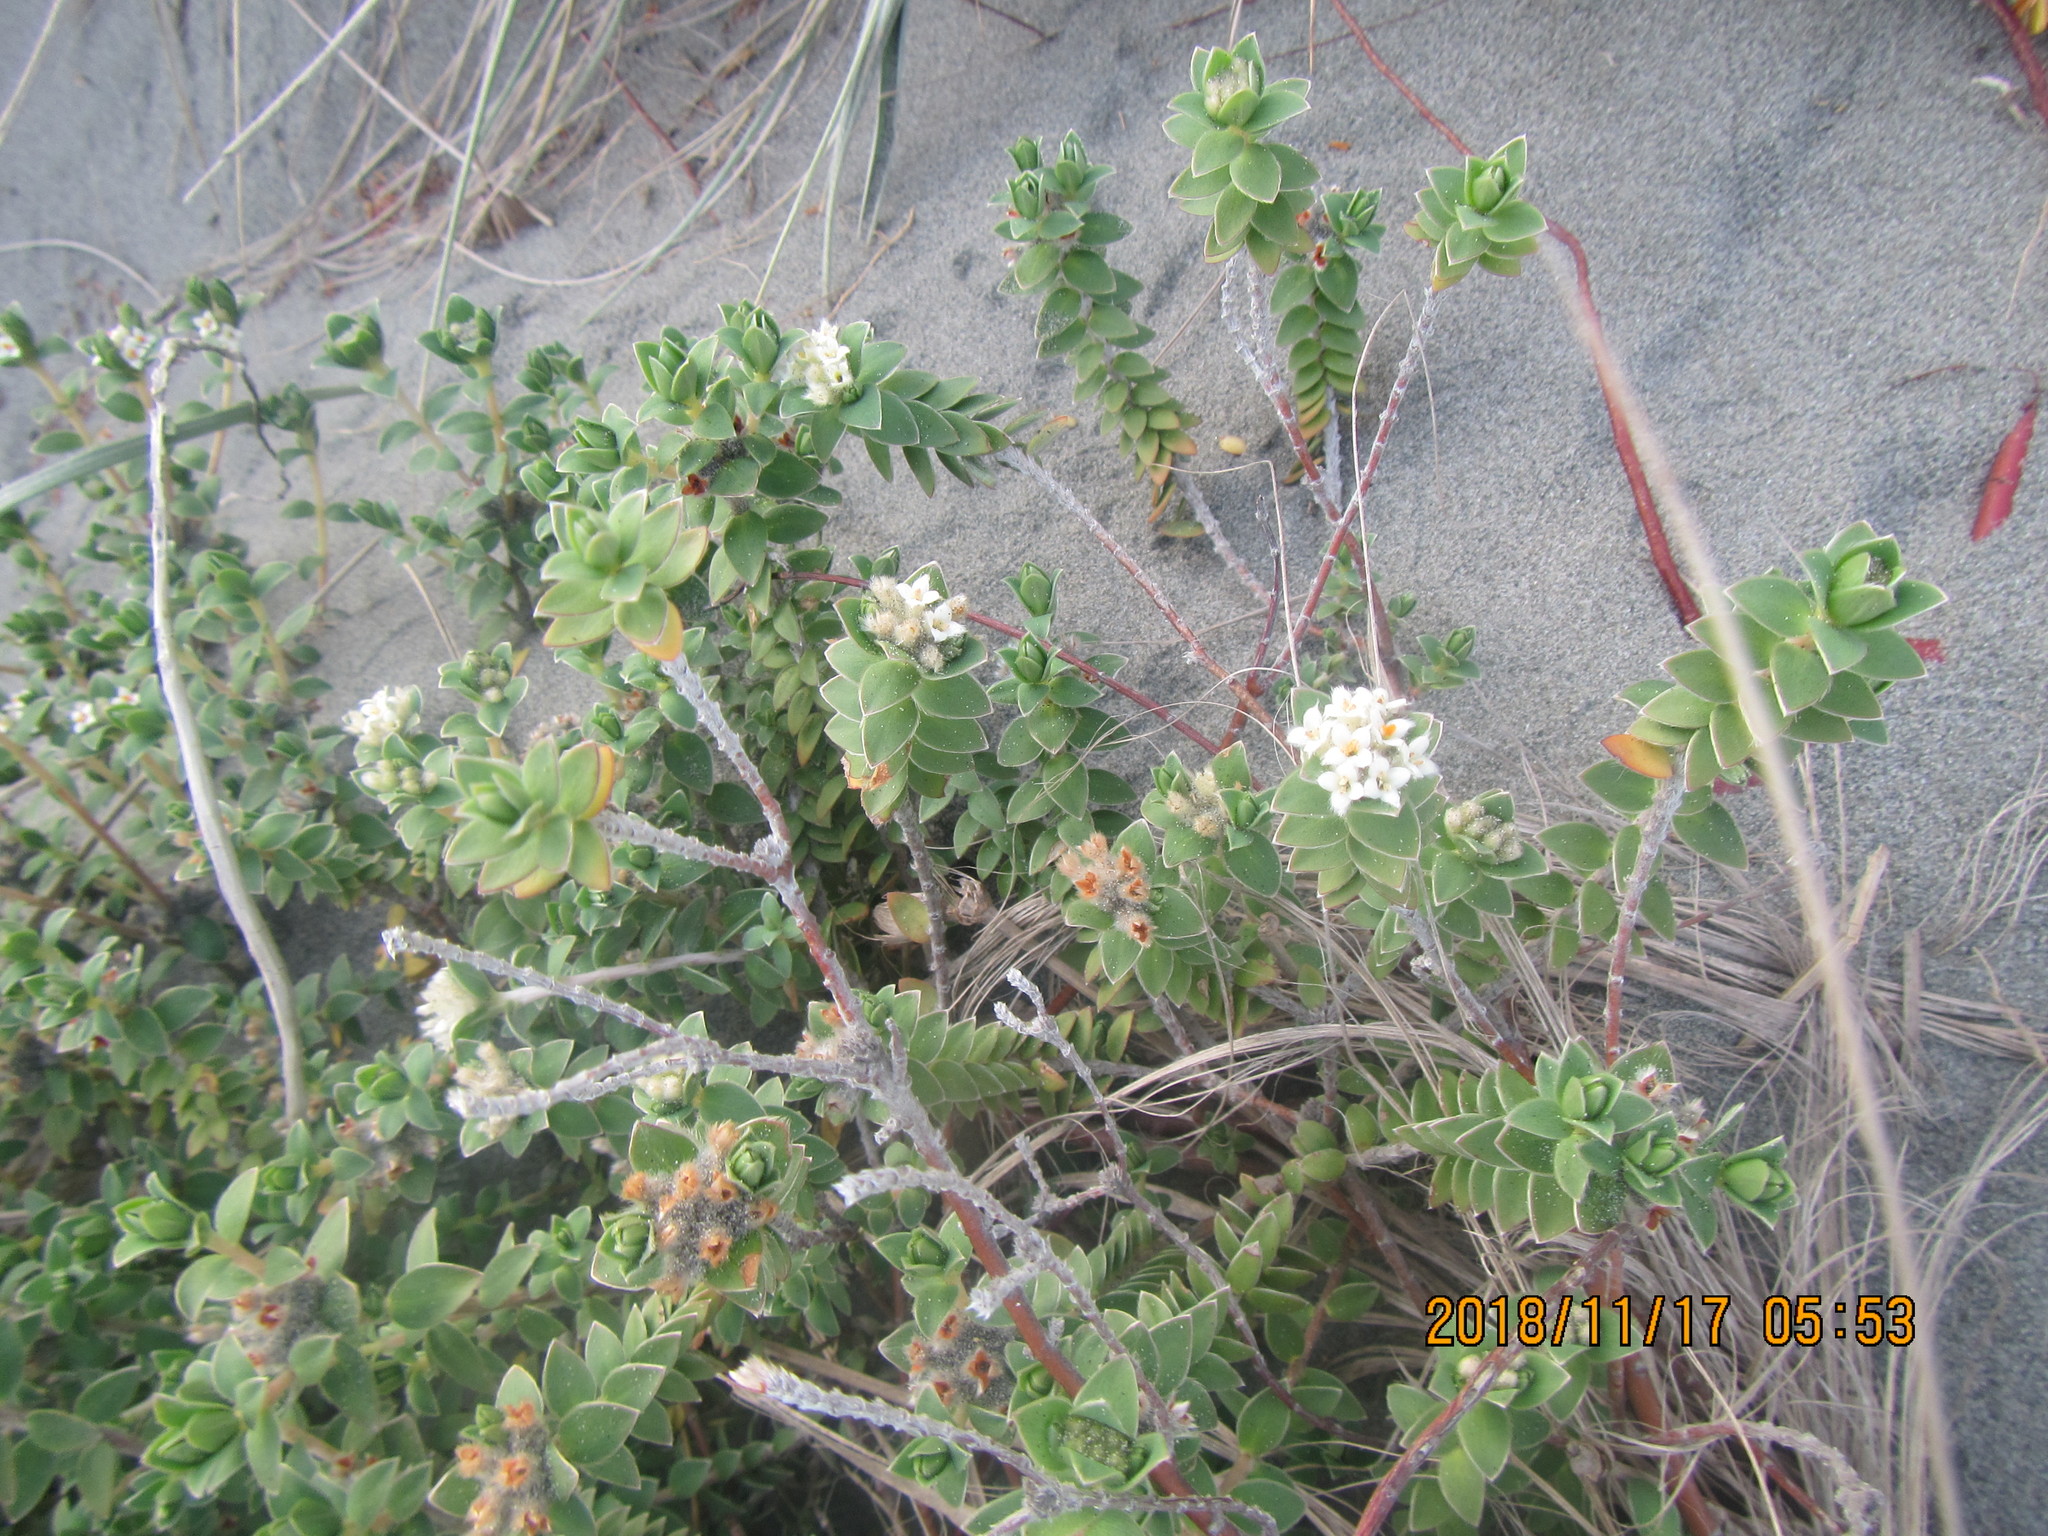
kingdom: Plantae
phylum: Tracheophyta
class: Magnoliopsida
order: Malvales
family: Thymelaeaceae
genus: Pimelea
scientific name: Pimelea villosa
